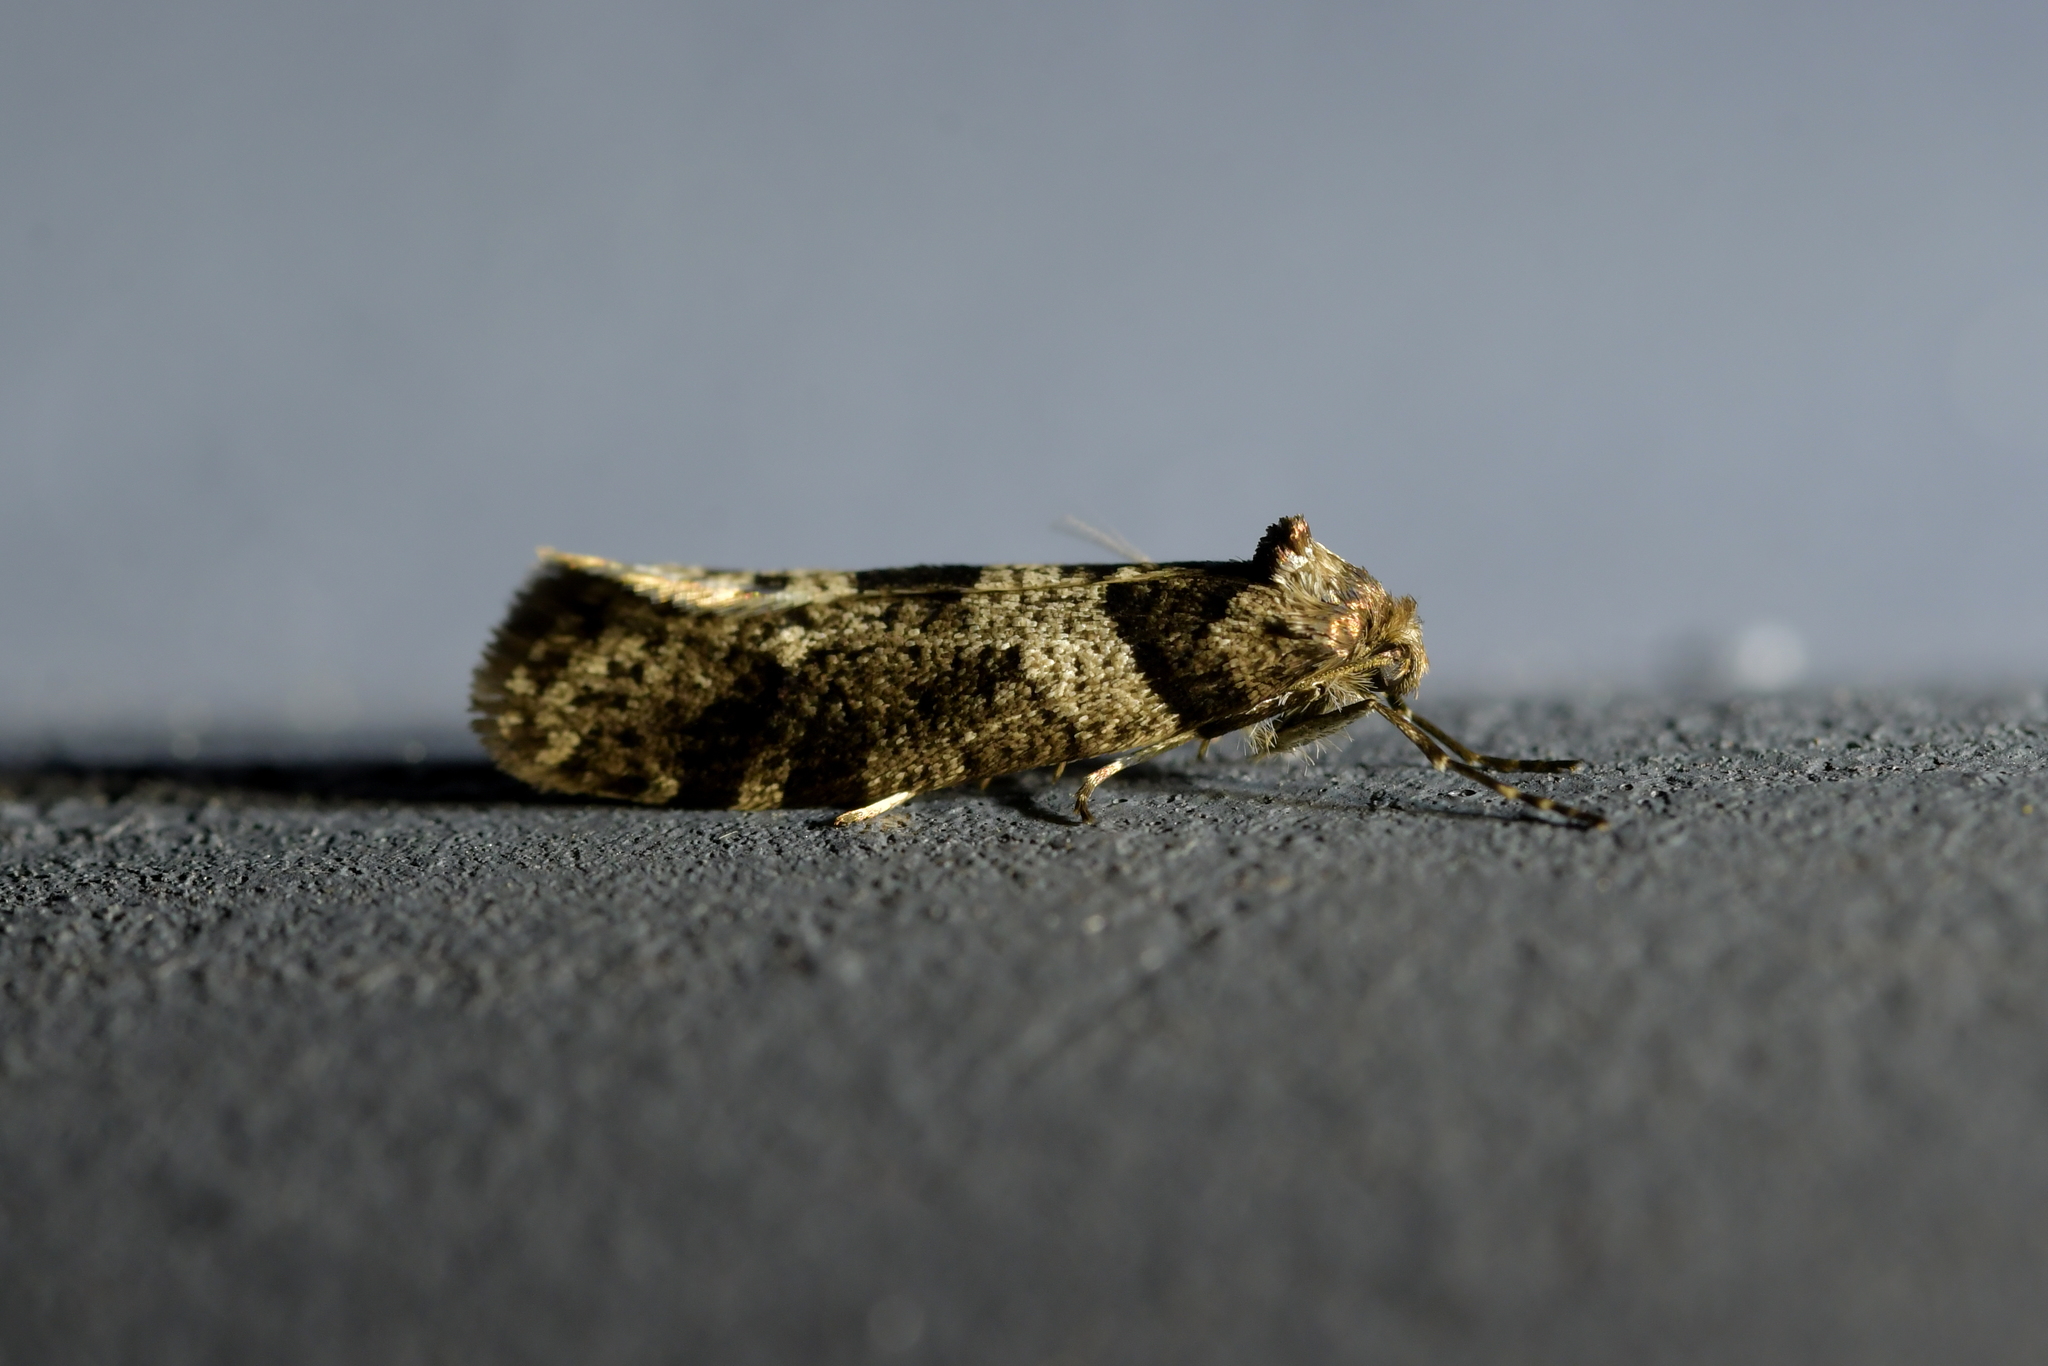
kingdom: Animalia
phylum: Arthropoda
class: Insecta
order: Lepidoptera
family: Psychidae
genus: Lepidoscia
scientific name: Lepidoscia heliochares
